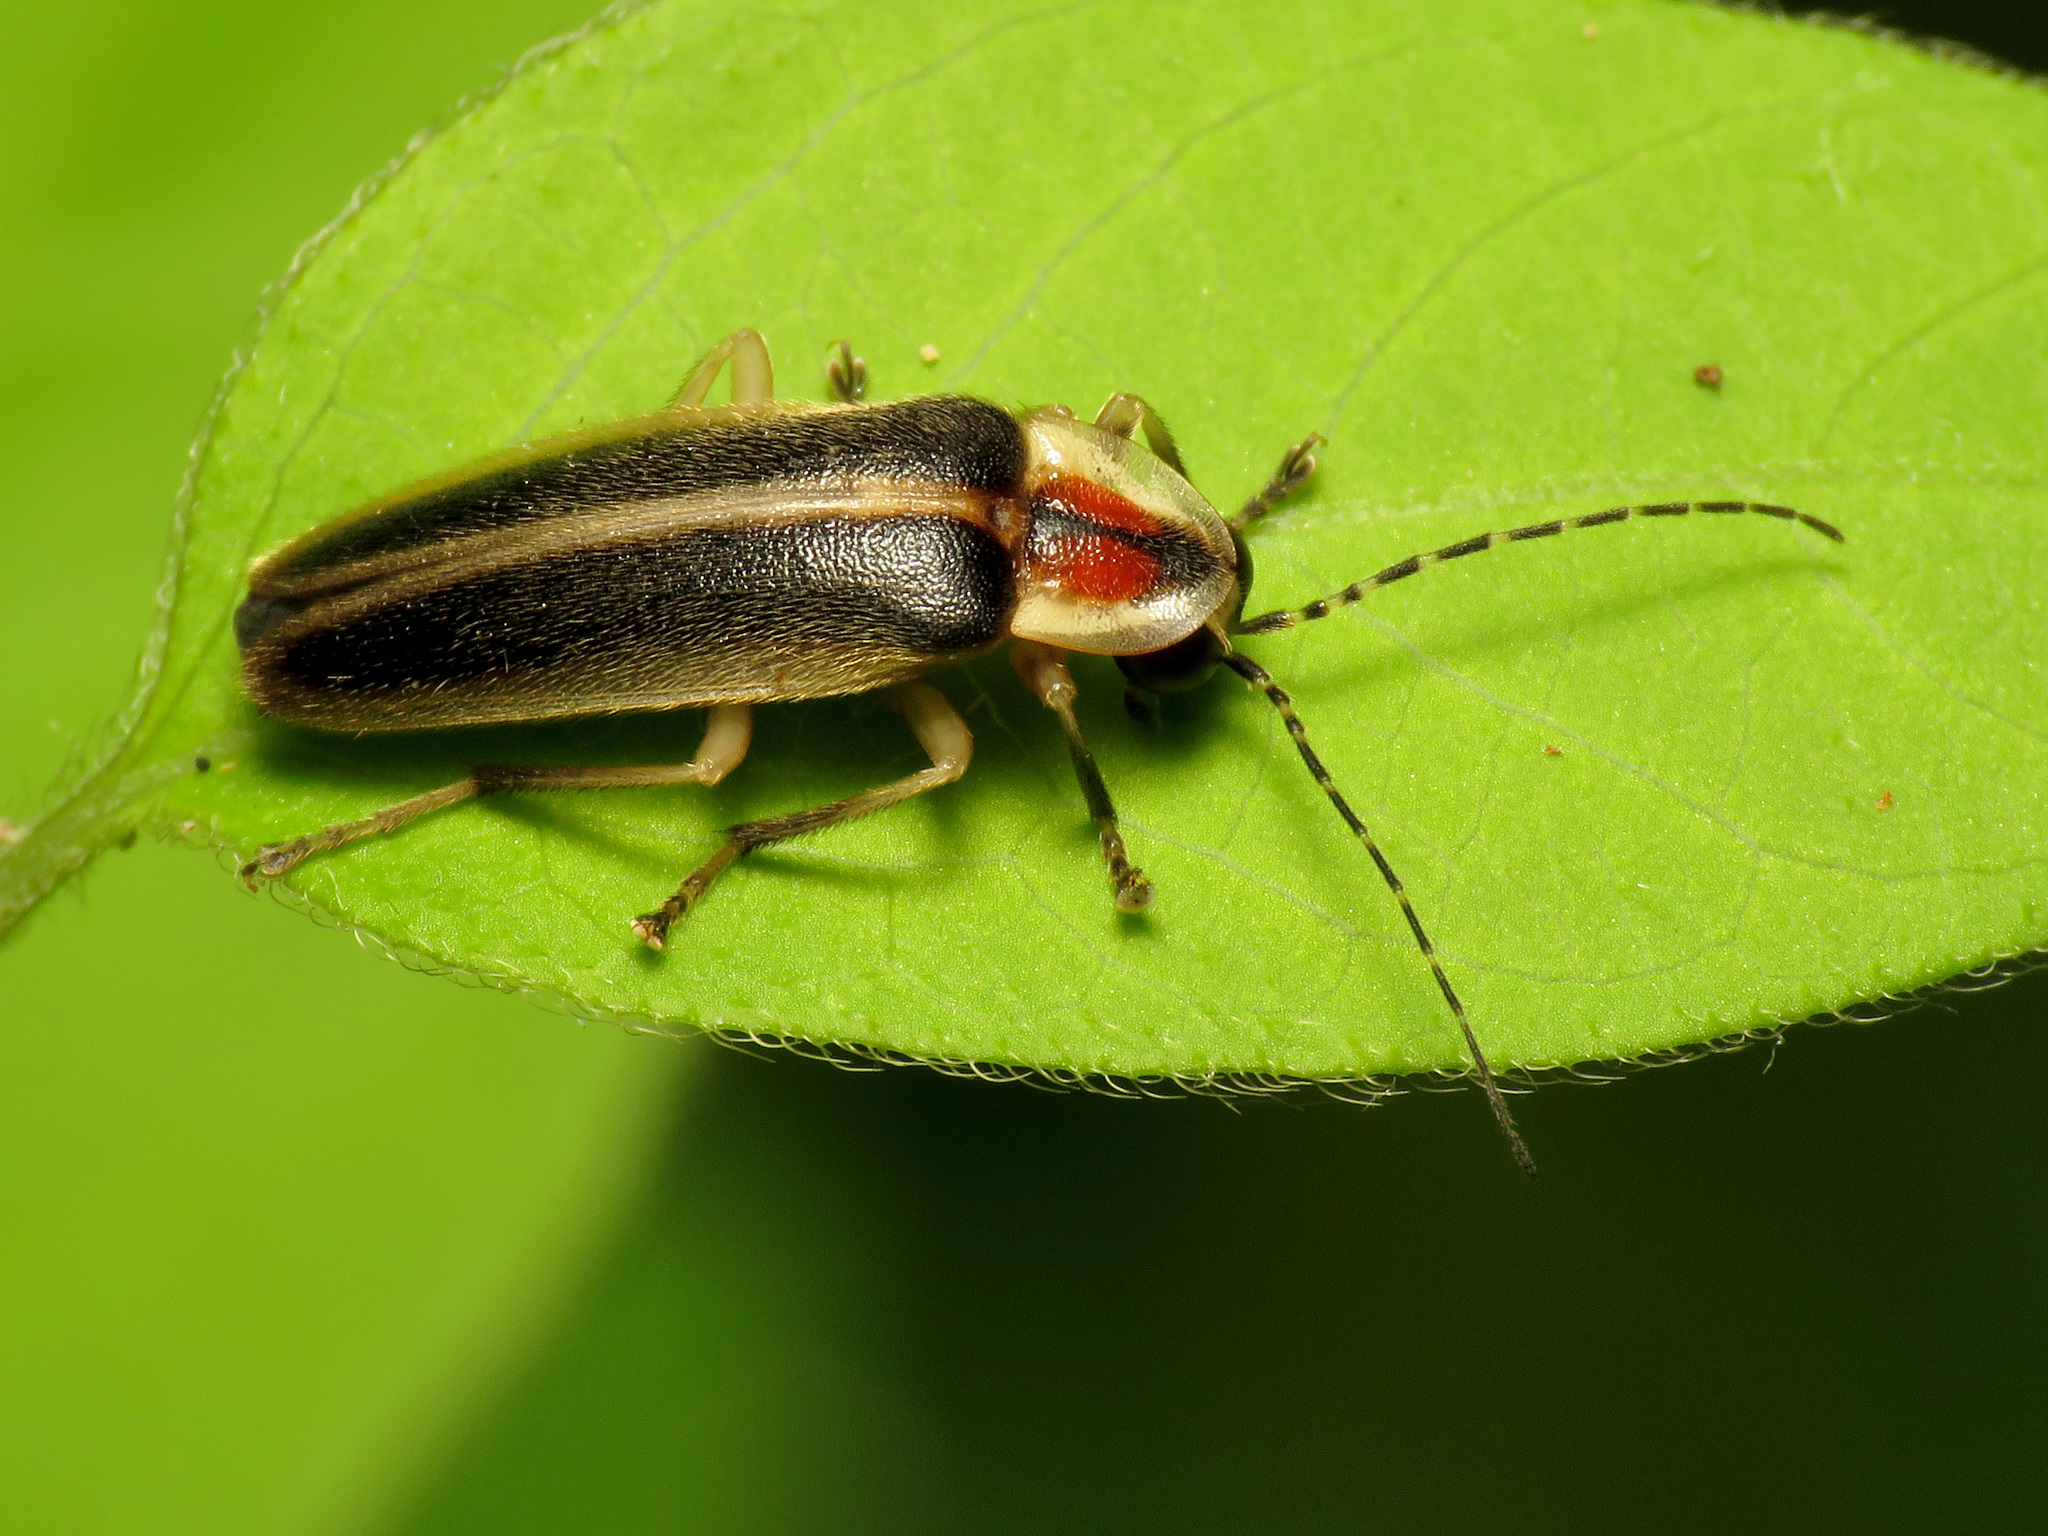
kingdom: Animalia
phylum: Arthropoda
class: Insecta
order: Coleoptera
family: Lampyridae
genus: Photuris
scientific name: Photuris
